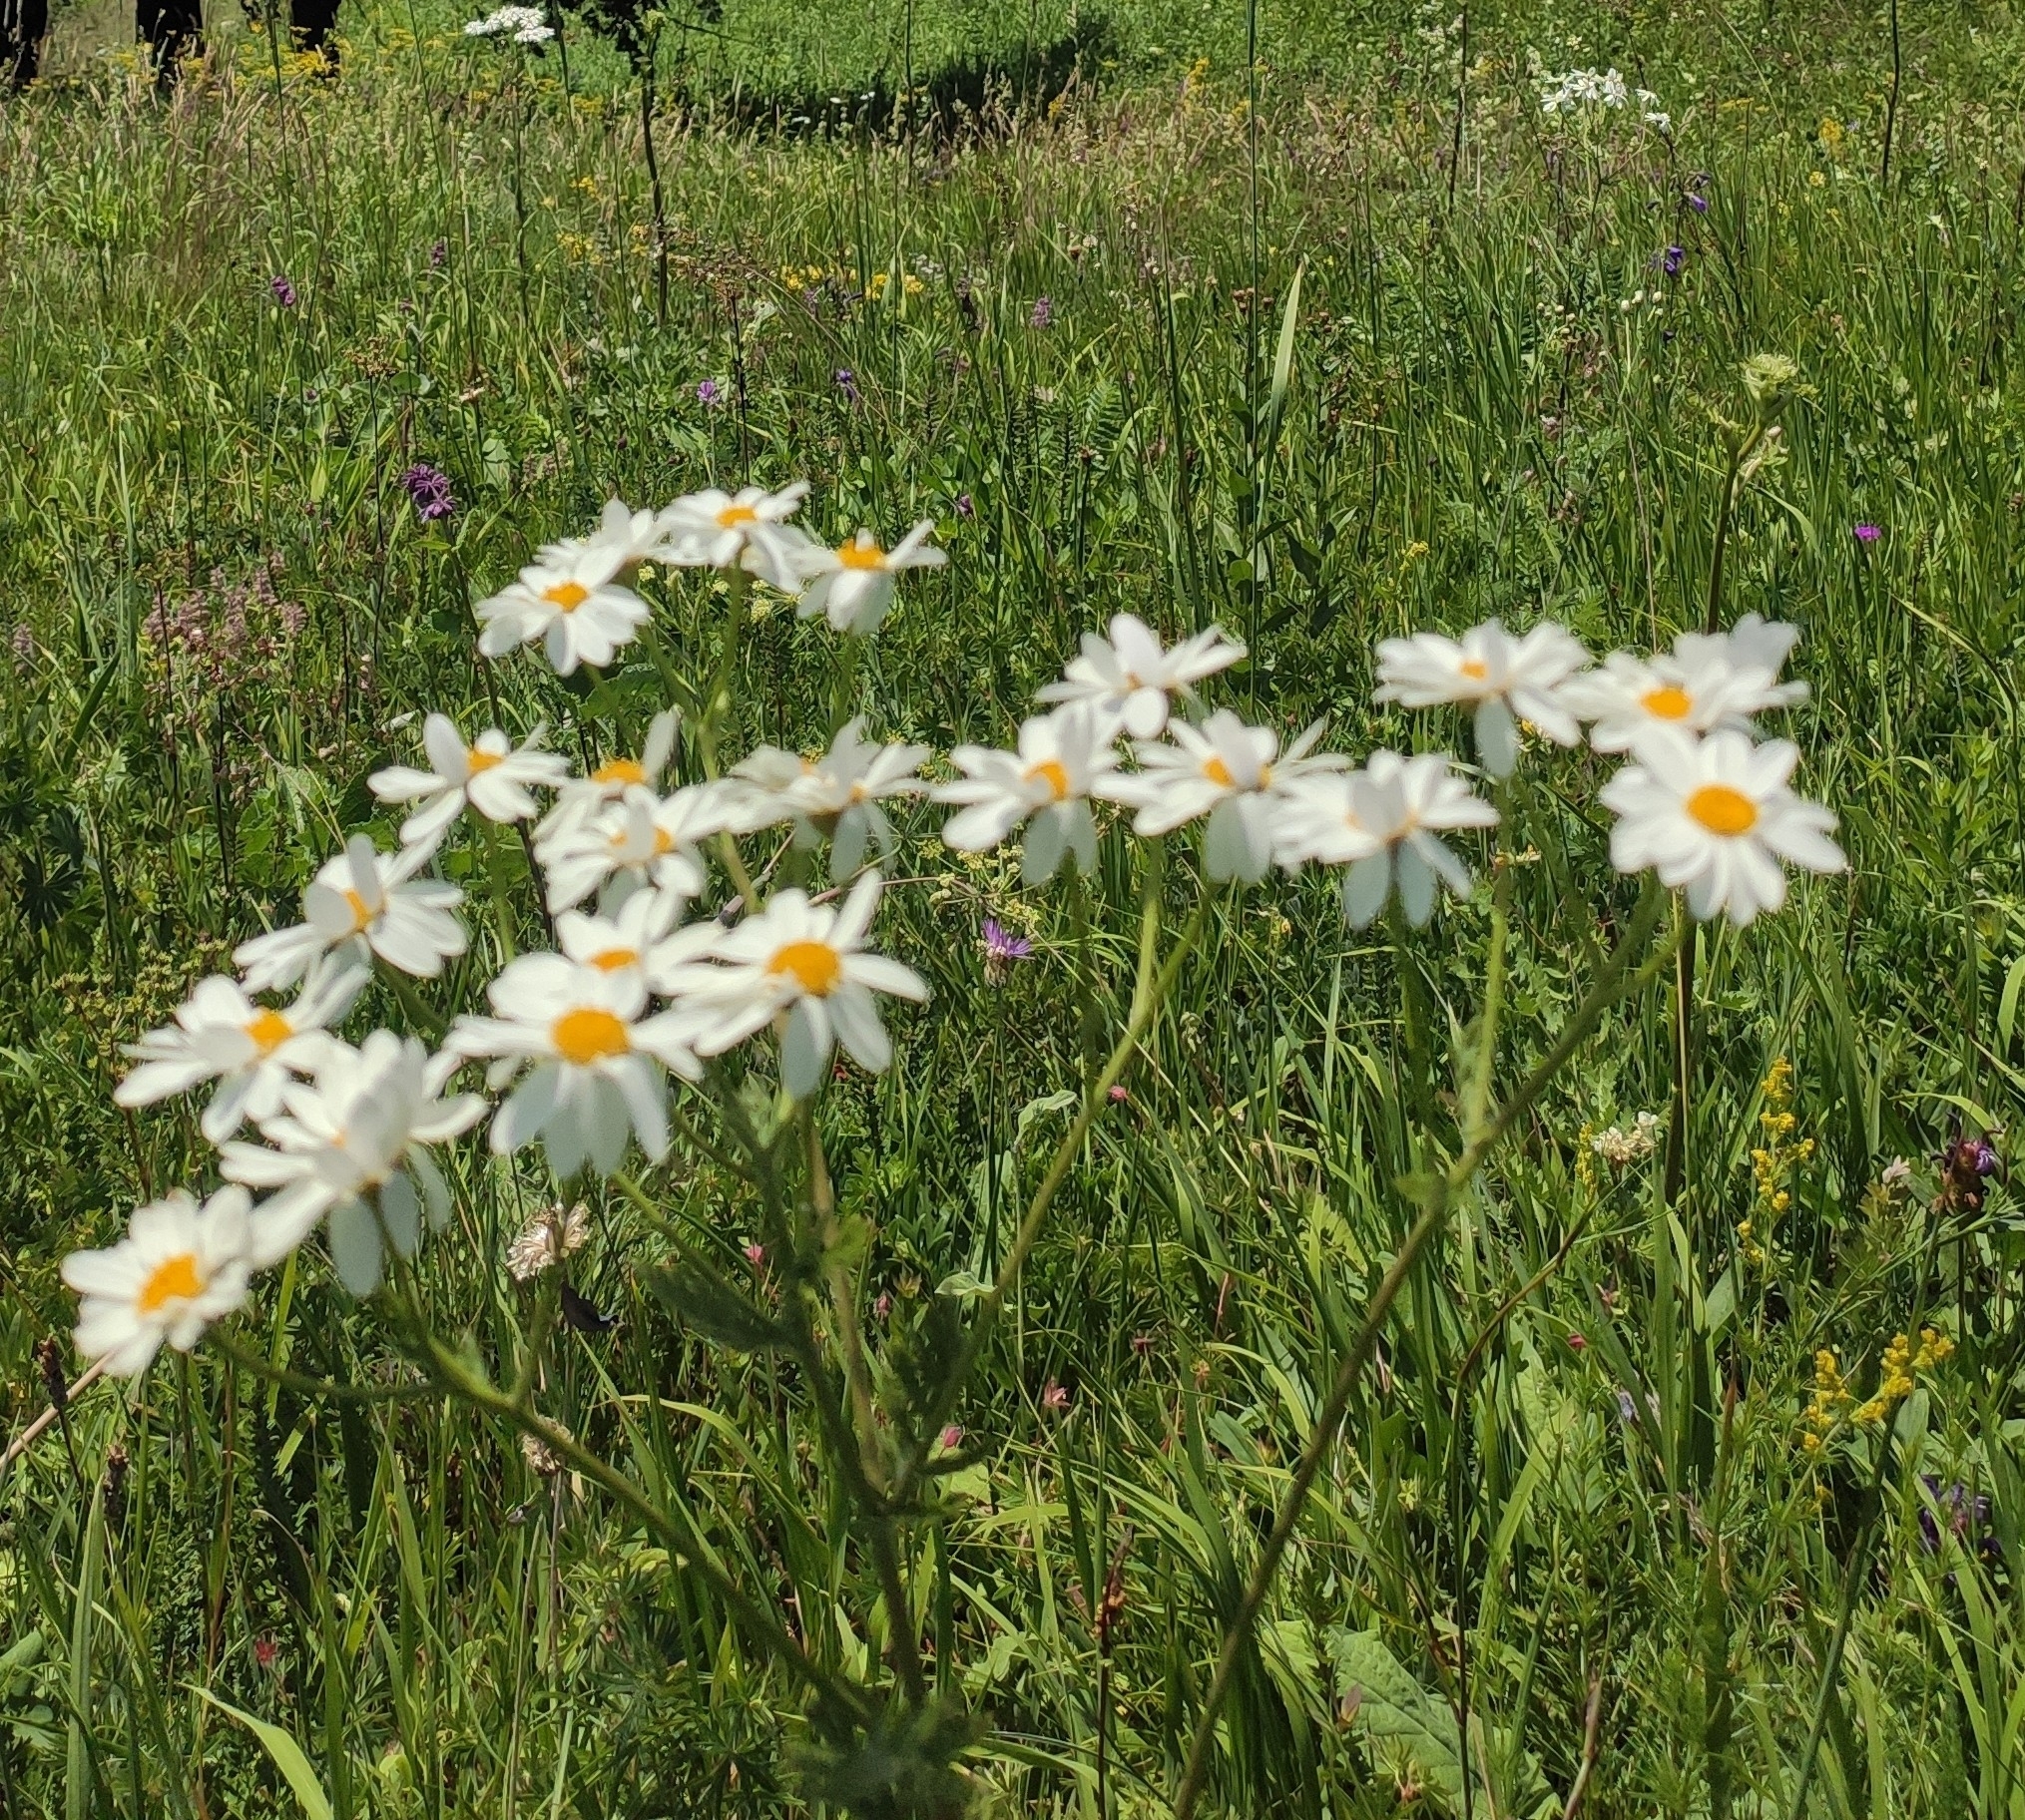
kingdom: Plantae
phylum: Tracheophyta
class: Magnoliopsida
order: Asterales
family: Asteraceae
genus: Tanacetum
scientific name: Tanacetum corymbosum
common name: Scentless feverfew
